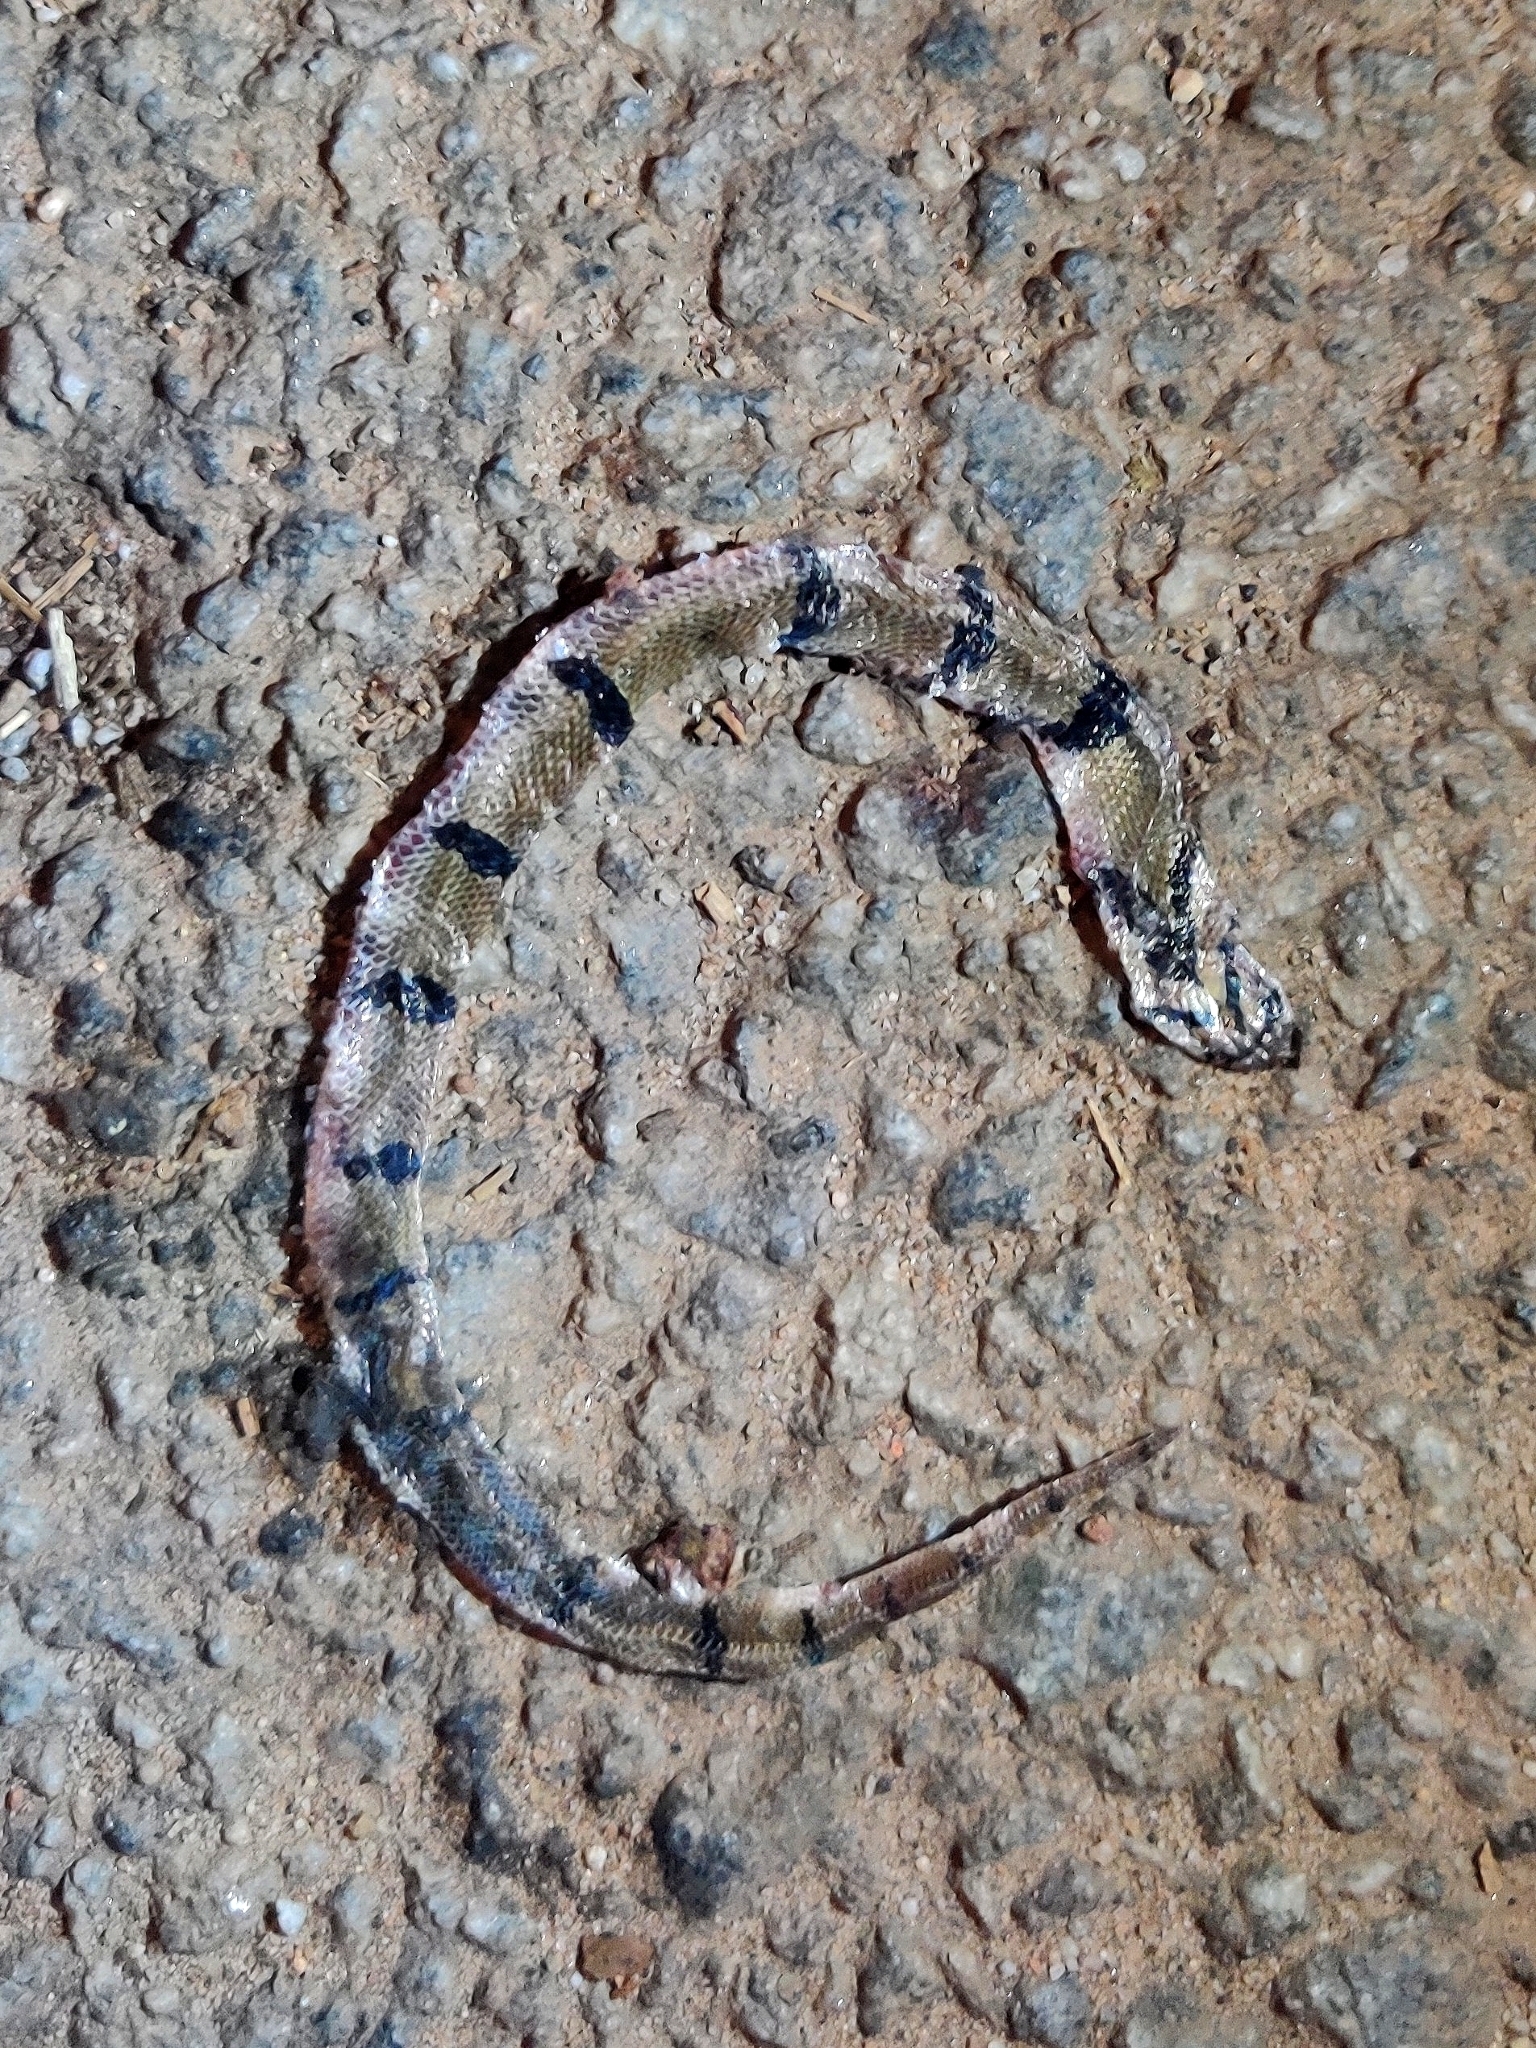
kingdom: Animalia
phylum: Chordata
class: Squamata
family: Colubridae
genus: Oligodon
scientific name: Oligodon arnensis
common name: Banded kukri
